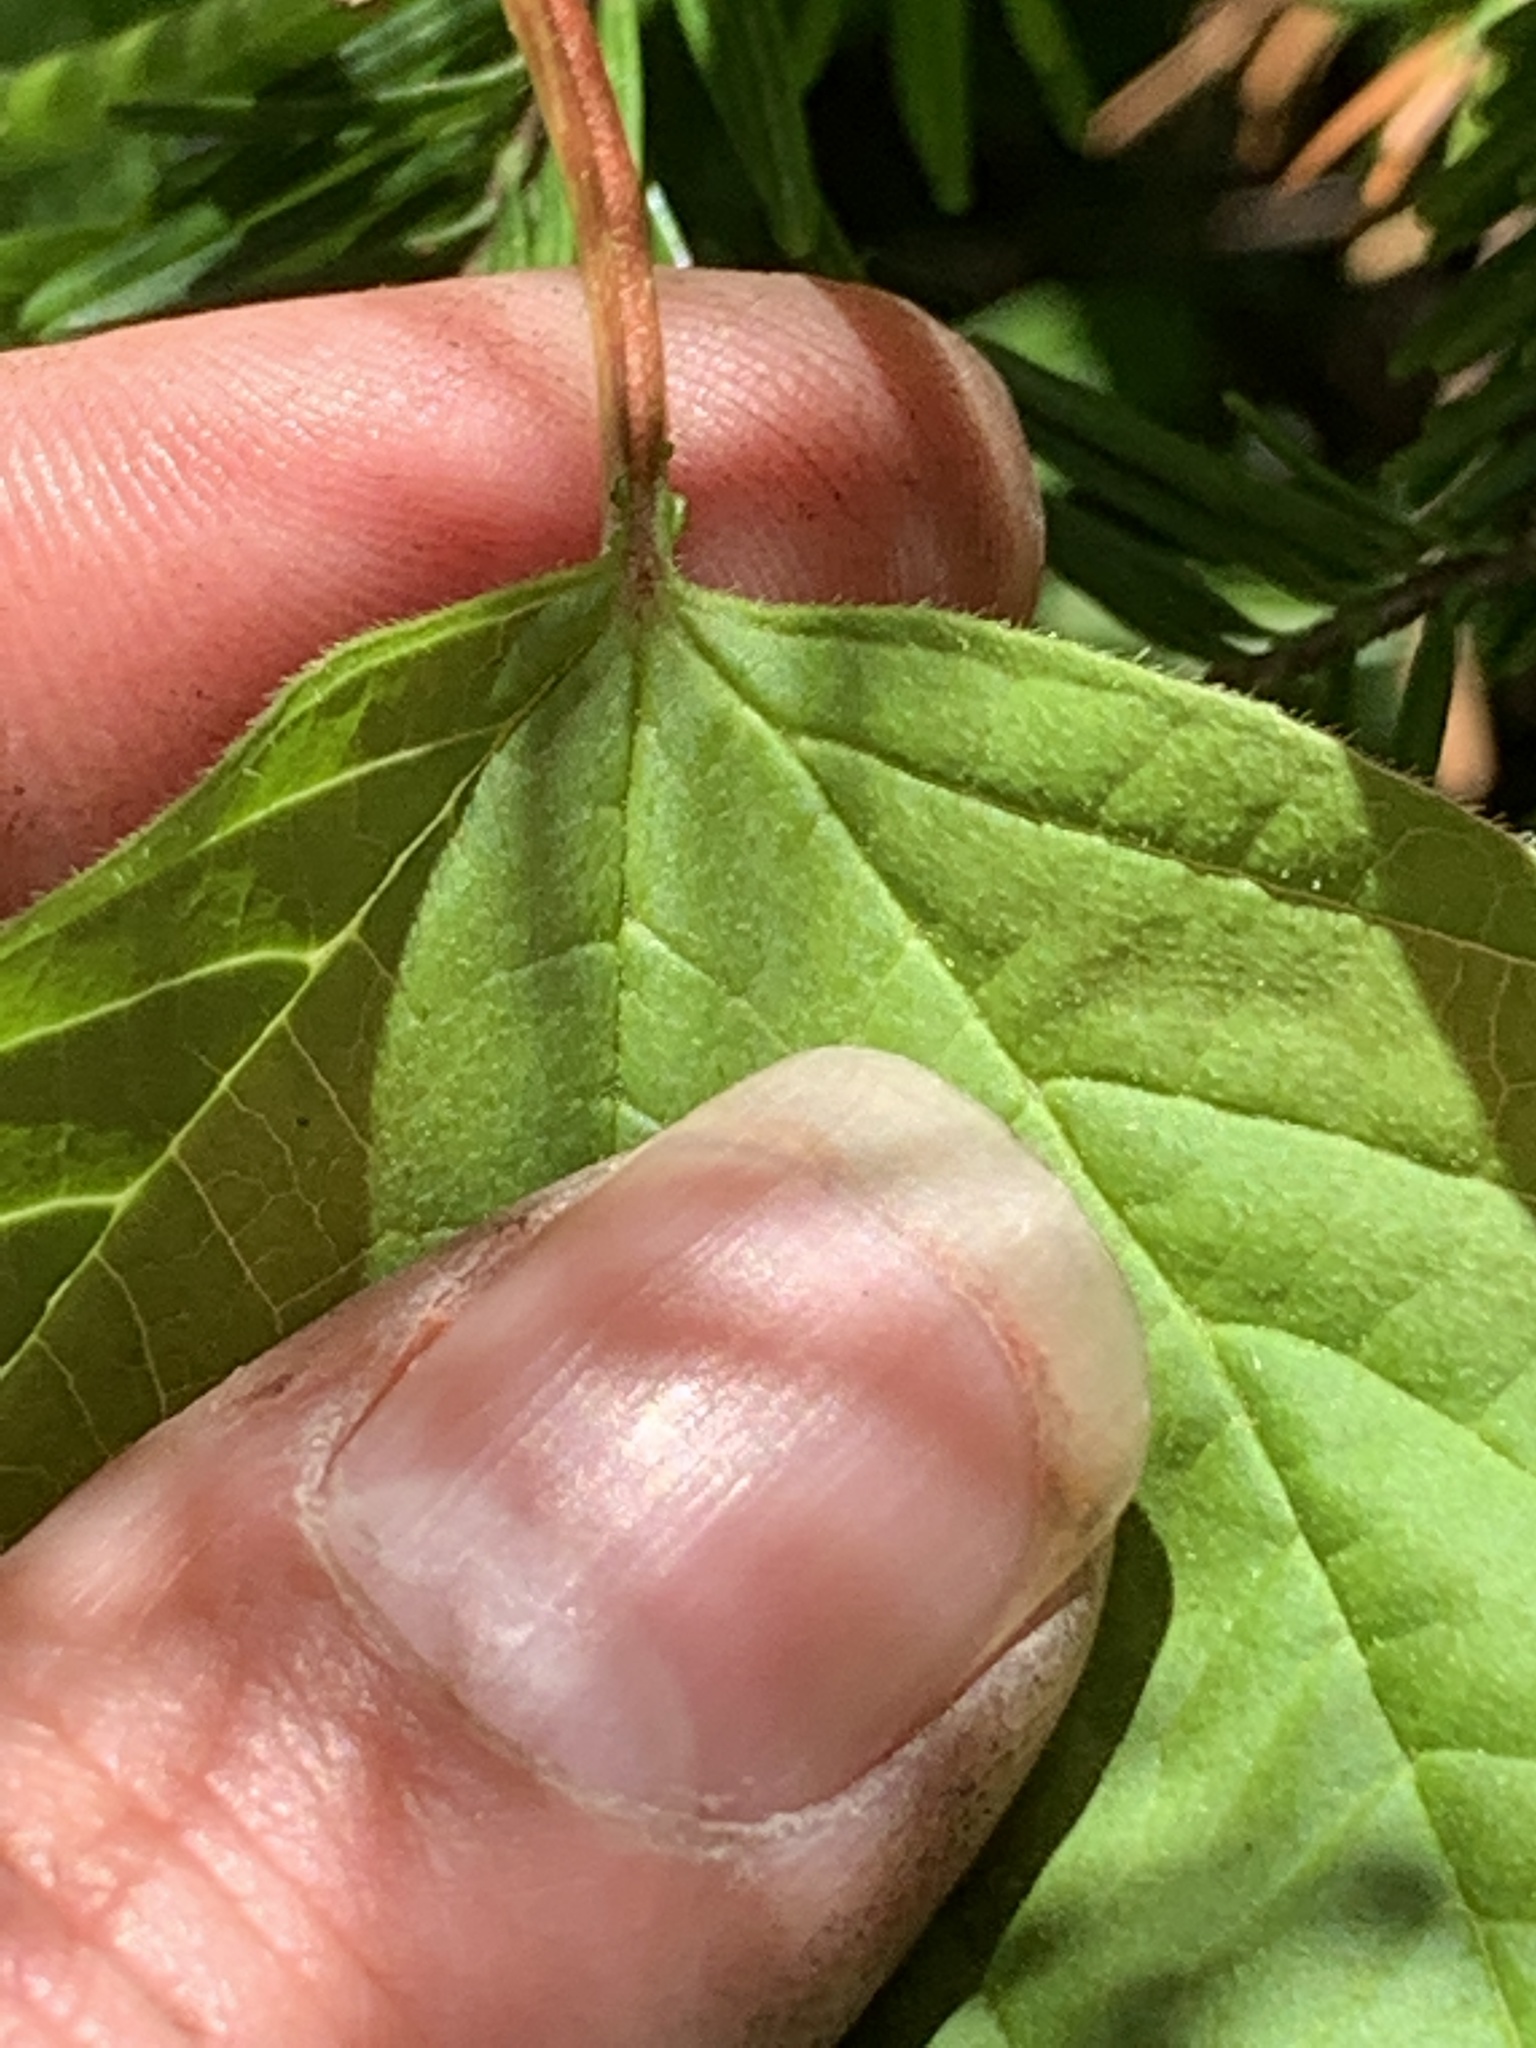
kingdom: Plantae
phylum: Tracheophyta
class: Magnoliopsida
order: Dipsacales
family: Viburnaceae
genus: Viburnum
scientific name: Viburnum opulus
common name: Guelder-rose
